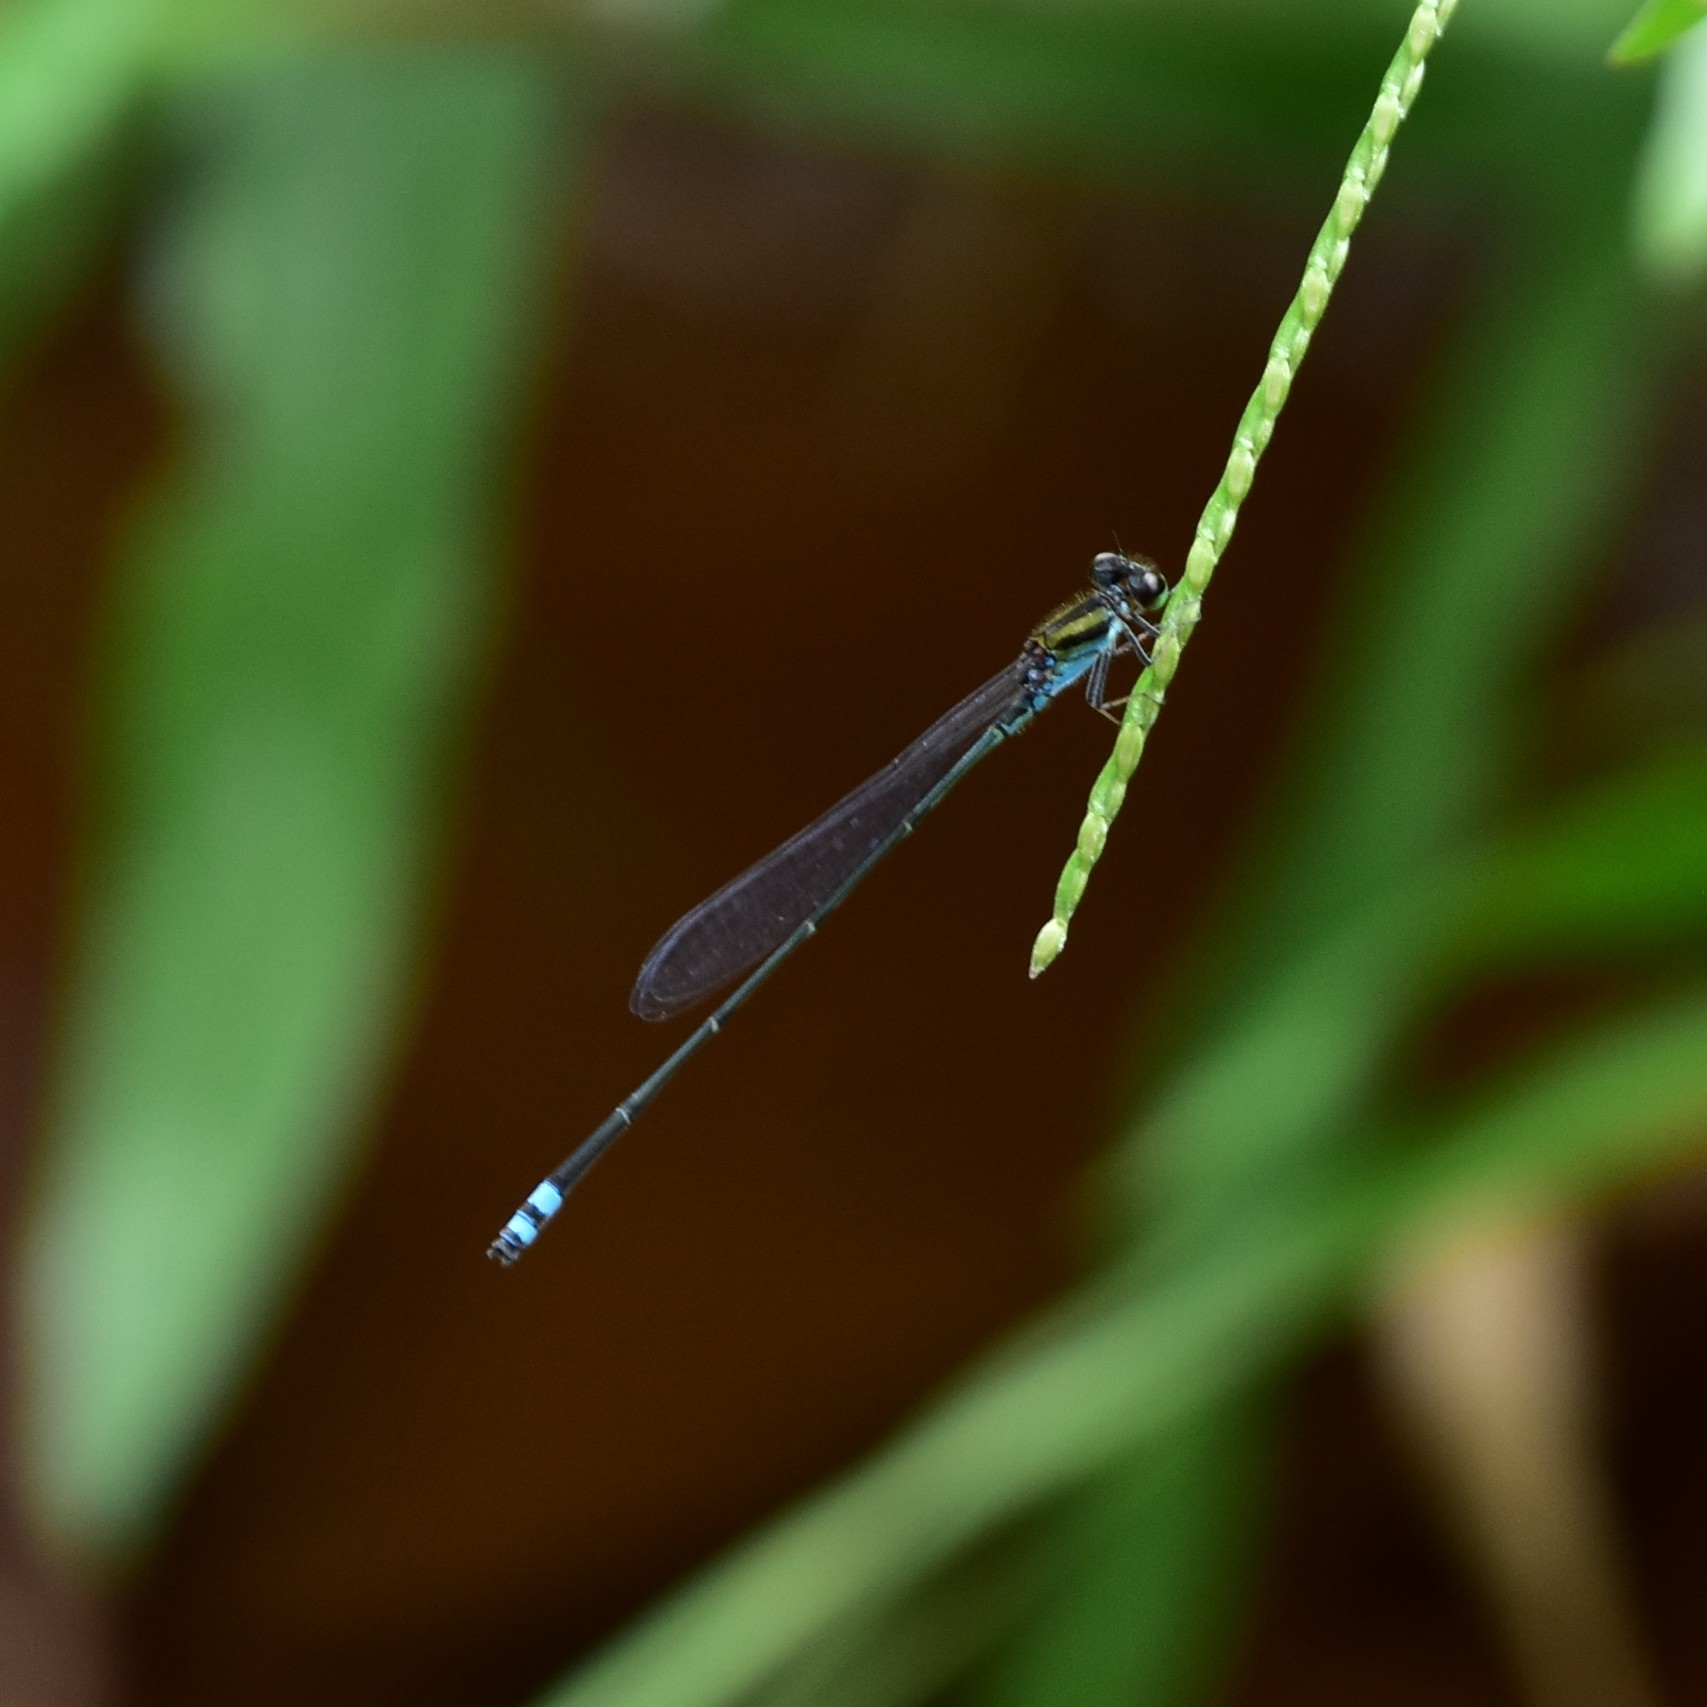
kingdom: Animalia
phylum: Arthropoda
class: Insecta
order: Odonata
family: Coenagrionidae
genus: Pseudagrion
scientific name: Pseudagrion indicum
